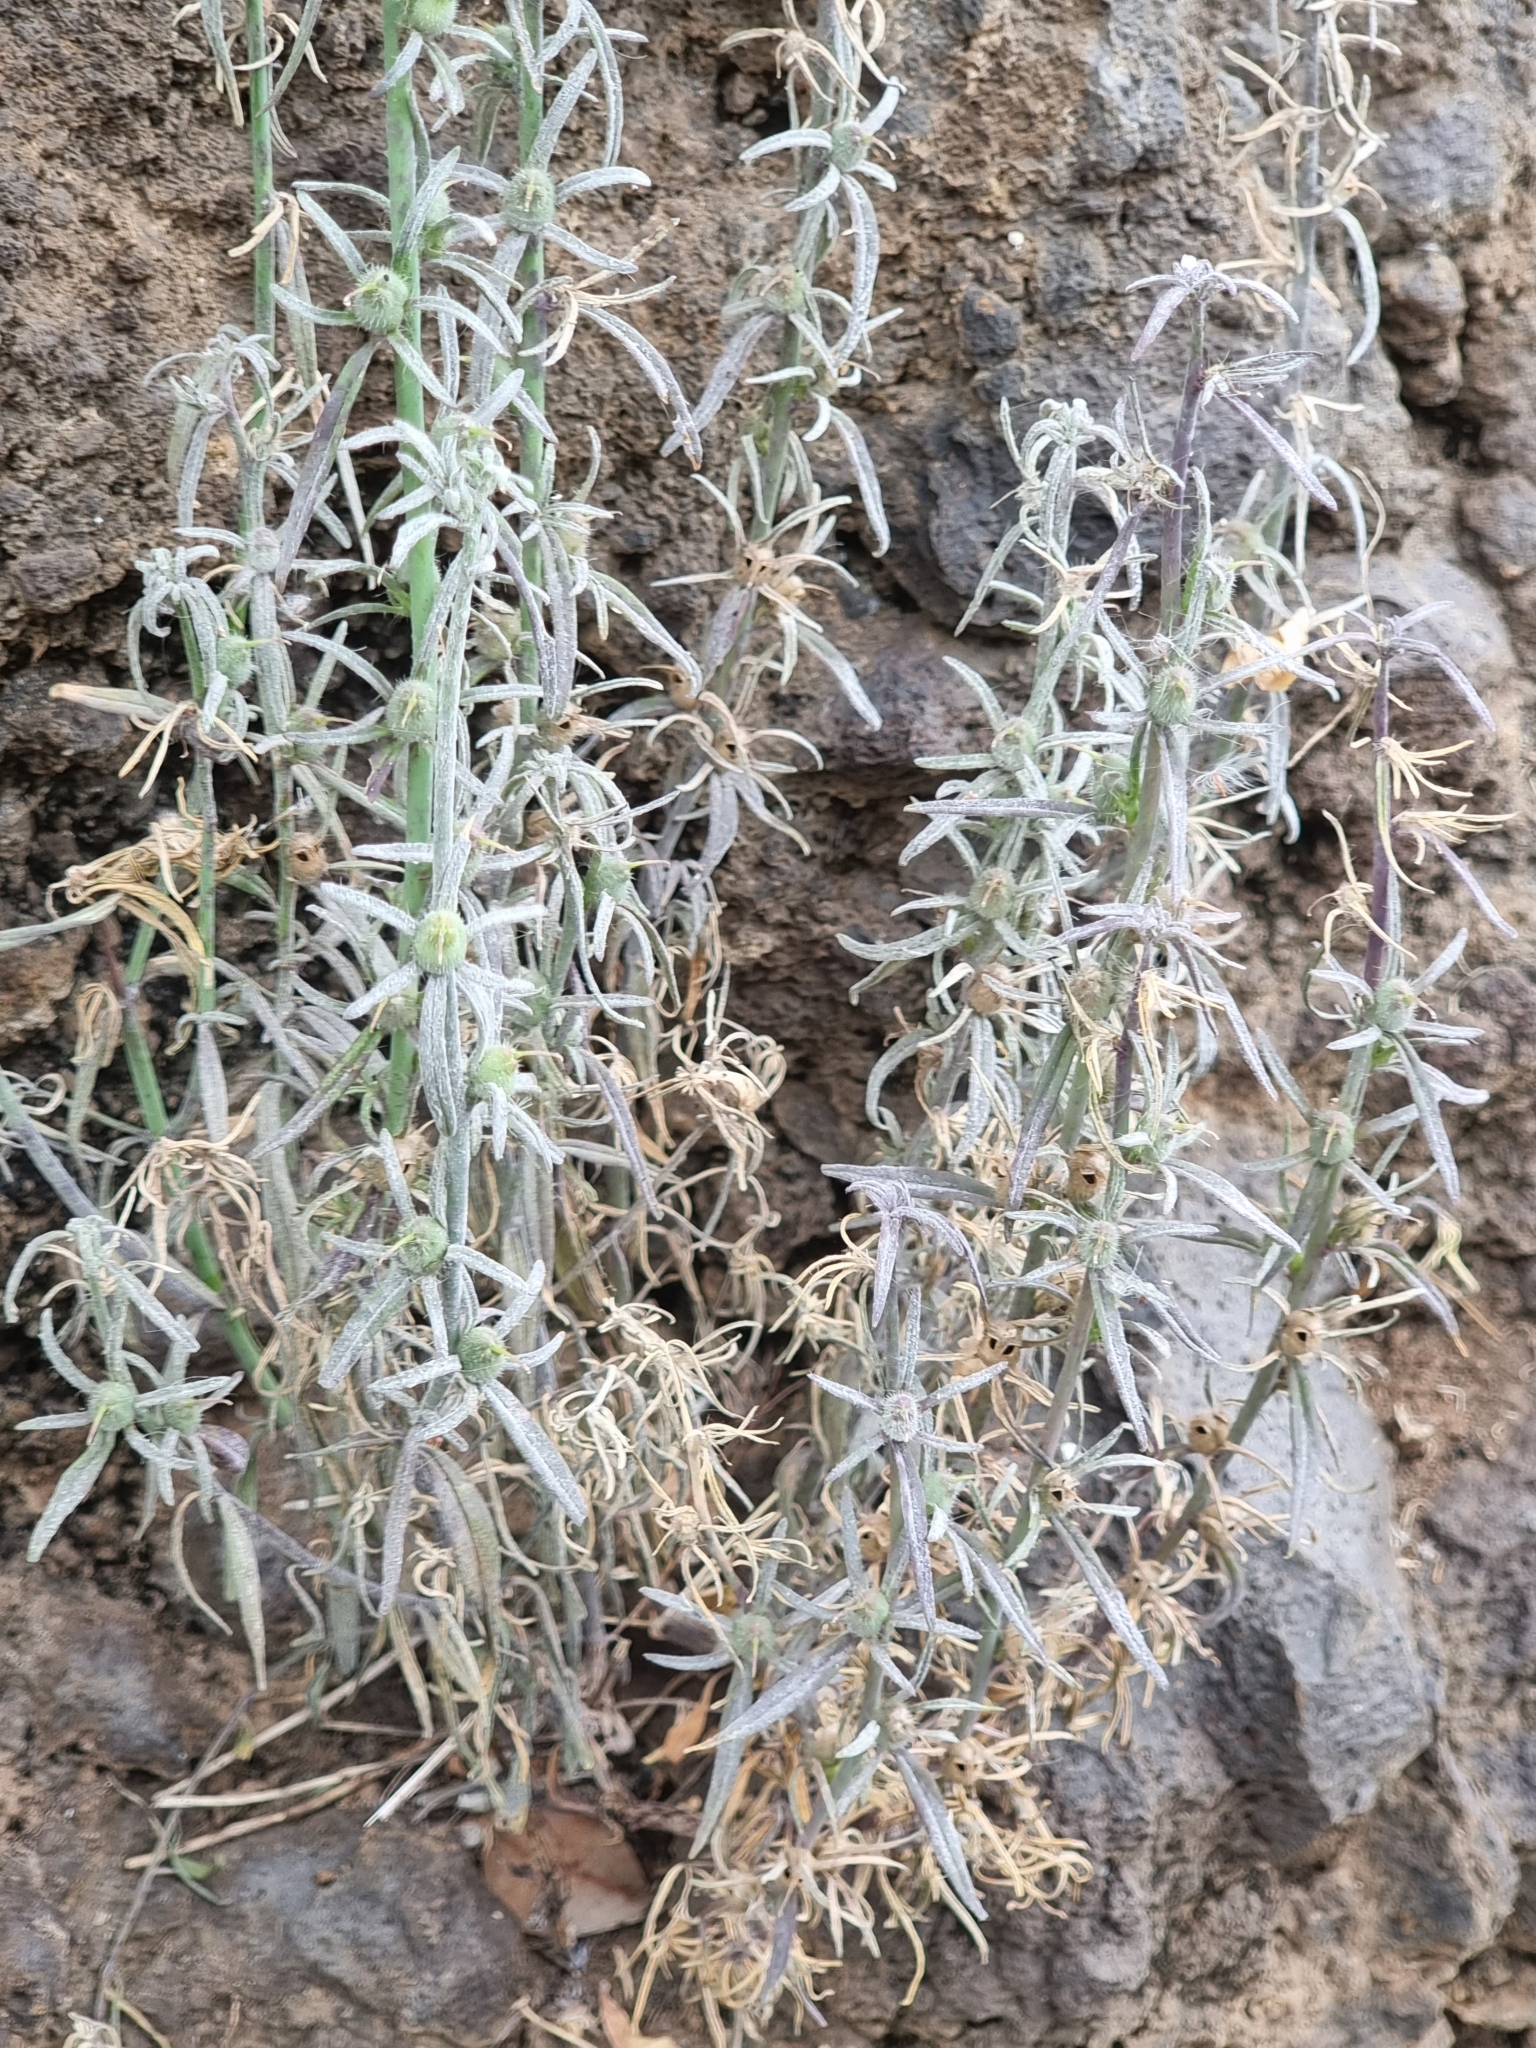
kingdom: Plantae
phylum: Tracheophyta
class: Magnoliopsida
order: Lamiales
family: Plantaginaceae
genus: Misopates
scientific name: Misopates orontium
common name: Weasel's-snout
